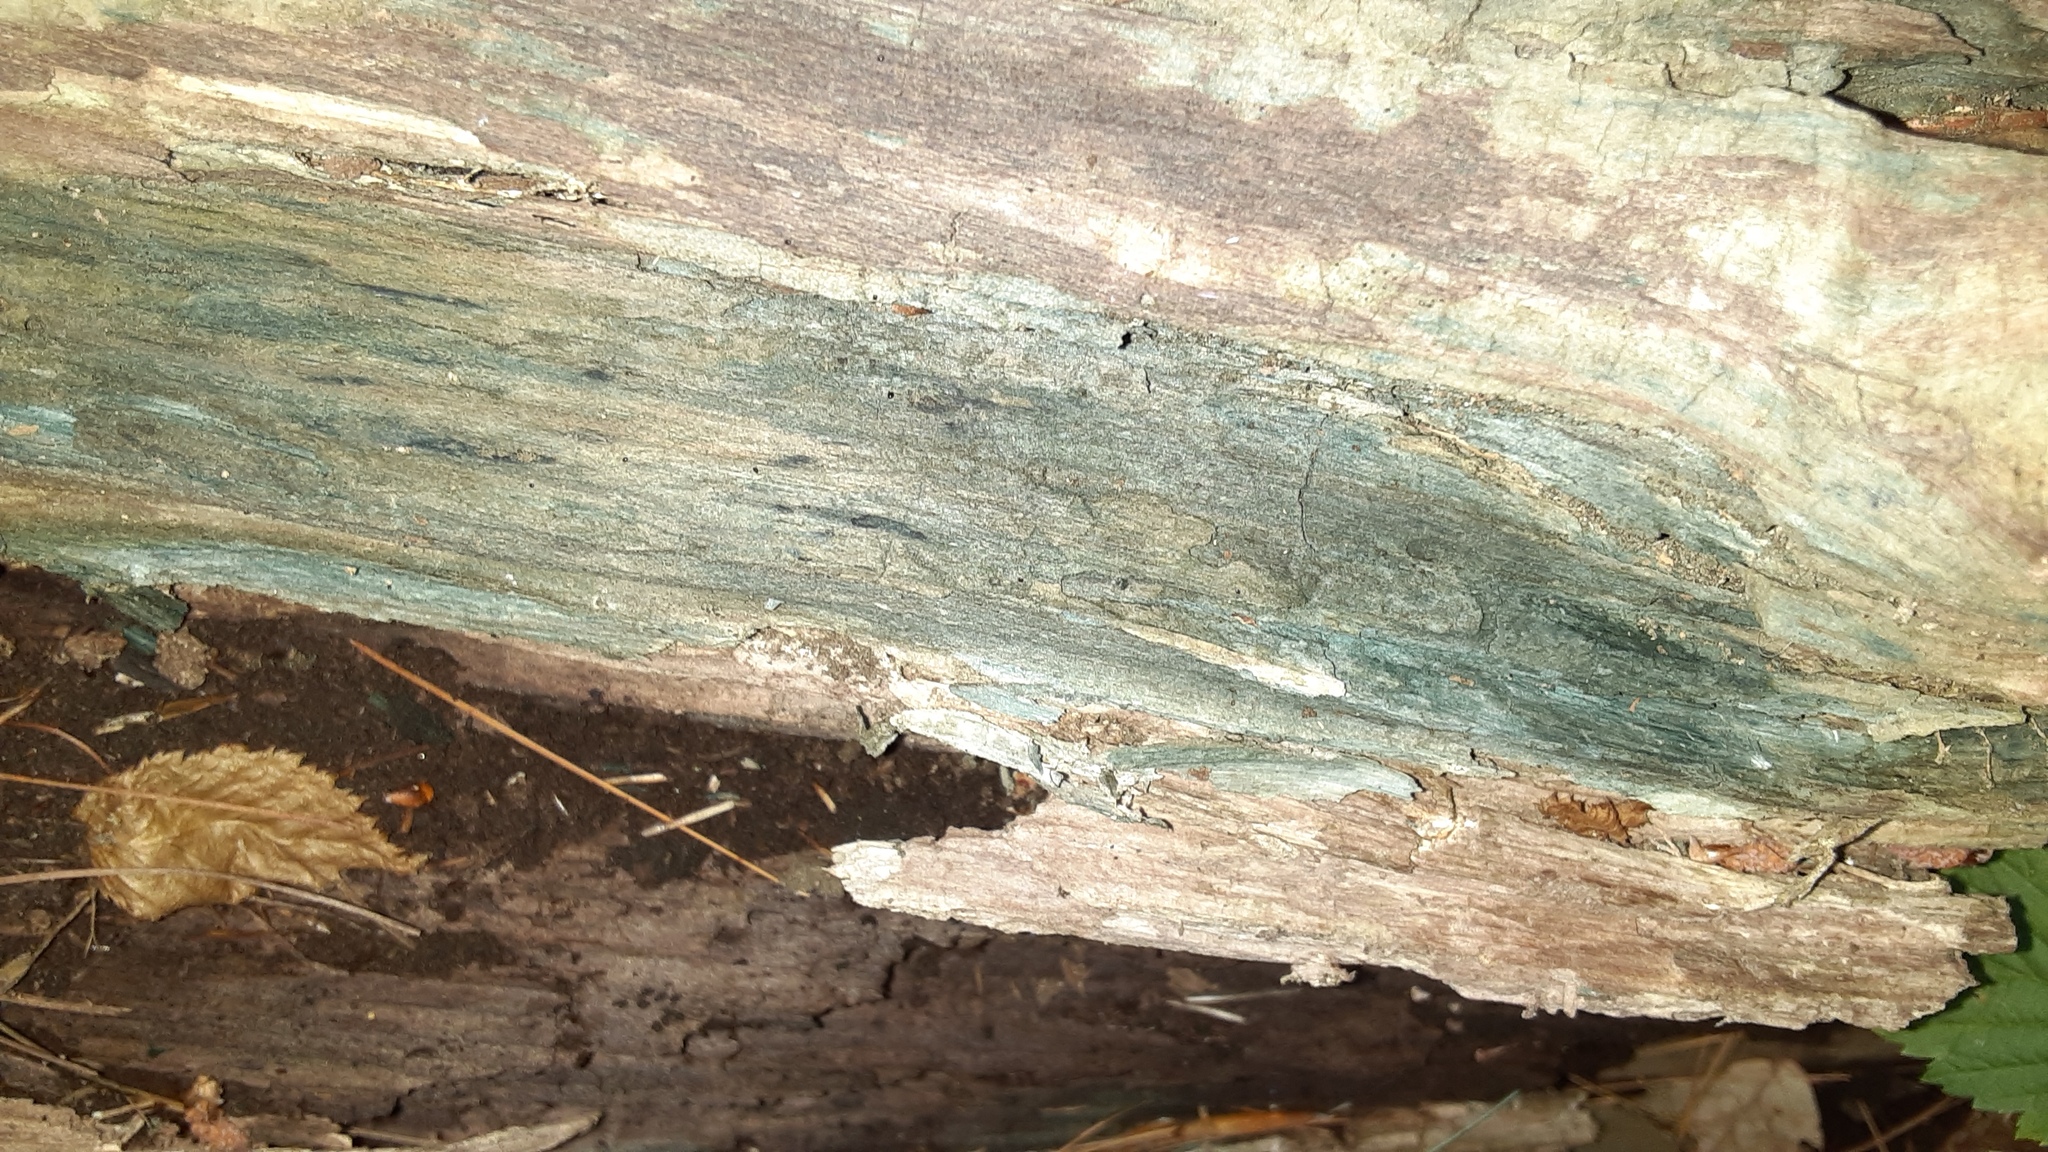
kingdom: Fungi
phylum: Ascomycota
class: Leotiomycetes
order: Helotiales
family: Chlorociboriaceae
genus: Chlorociboria
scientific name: Chlorociboria aeruginascens
